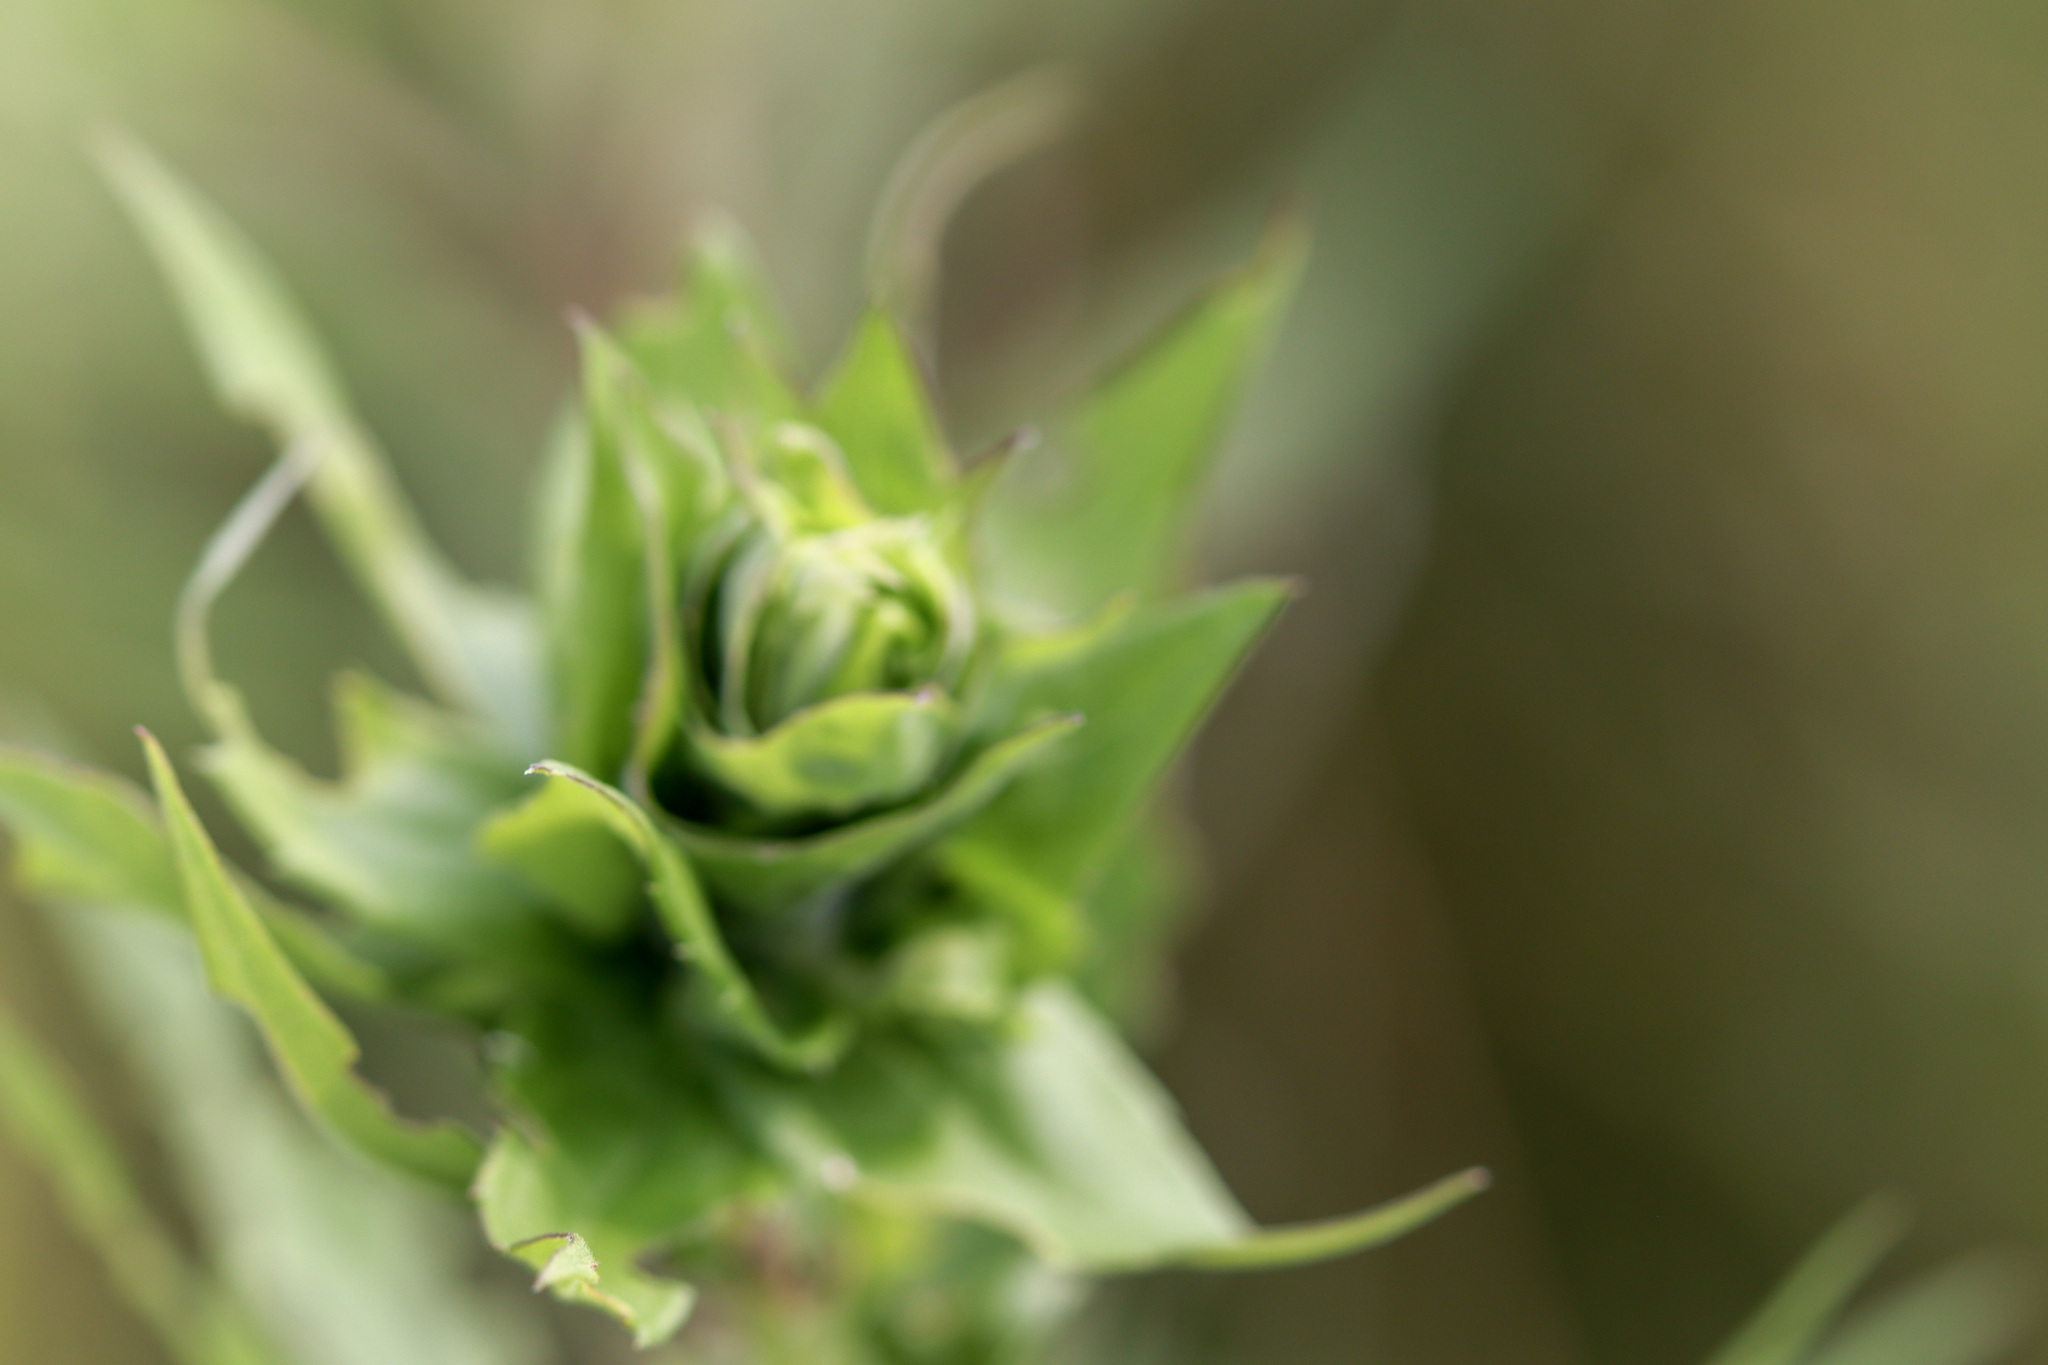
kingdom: Animalia
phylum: Arthropoda
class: Insecta
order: Diptera
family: Cecidomyiidae
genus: Rhopalomyia
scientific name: Rhopalomyia solidaginis
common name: Goldenrod bunch gall midge
